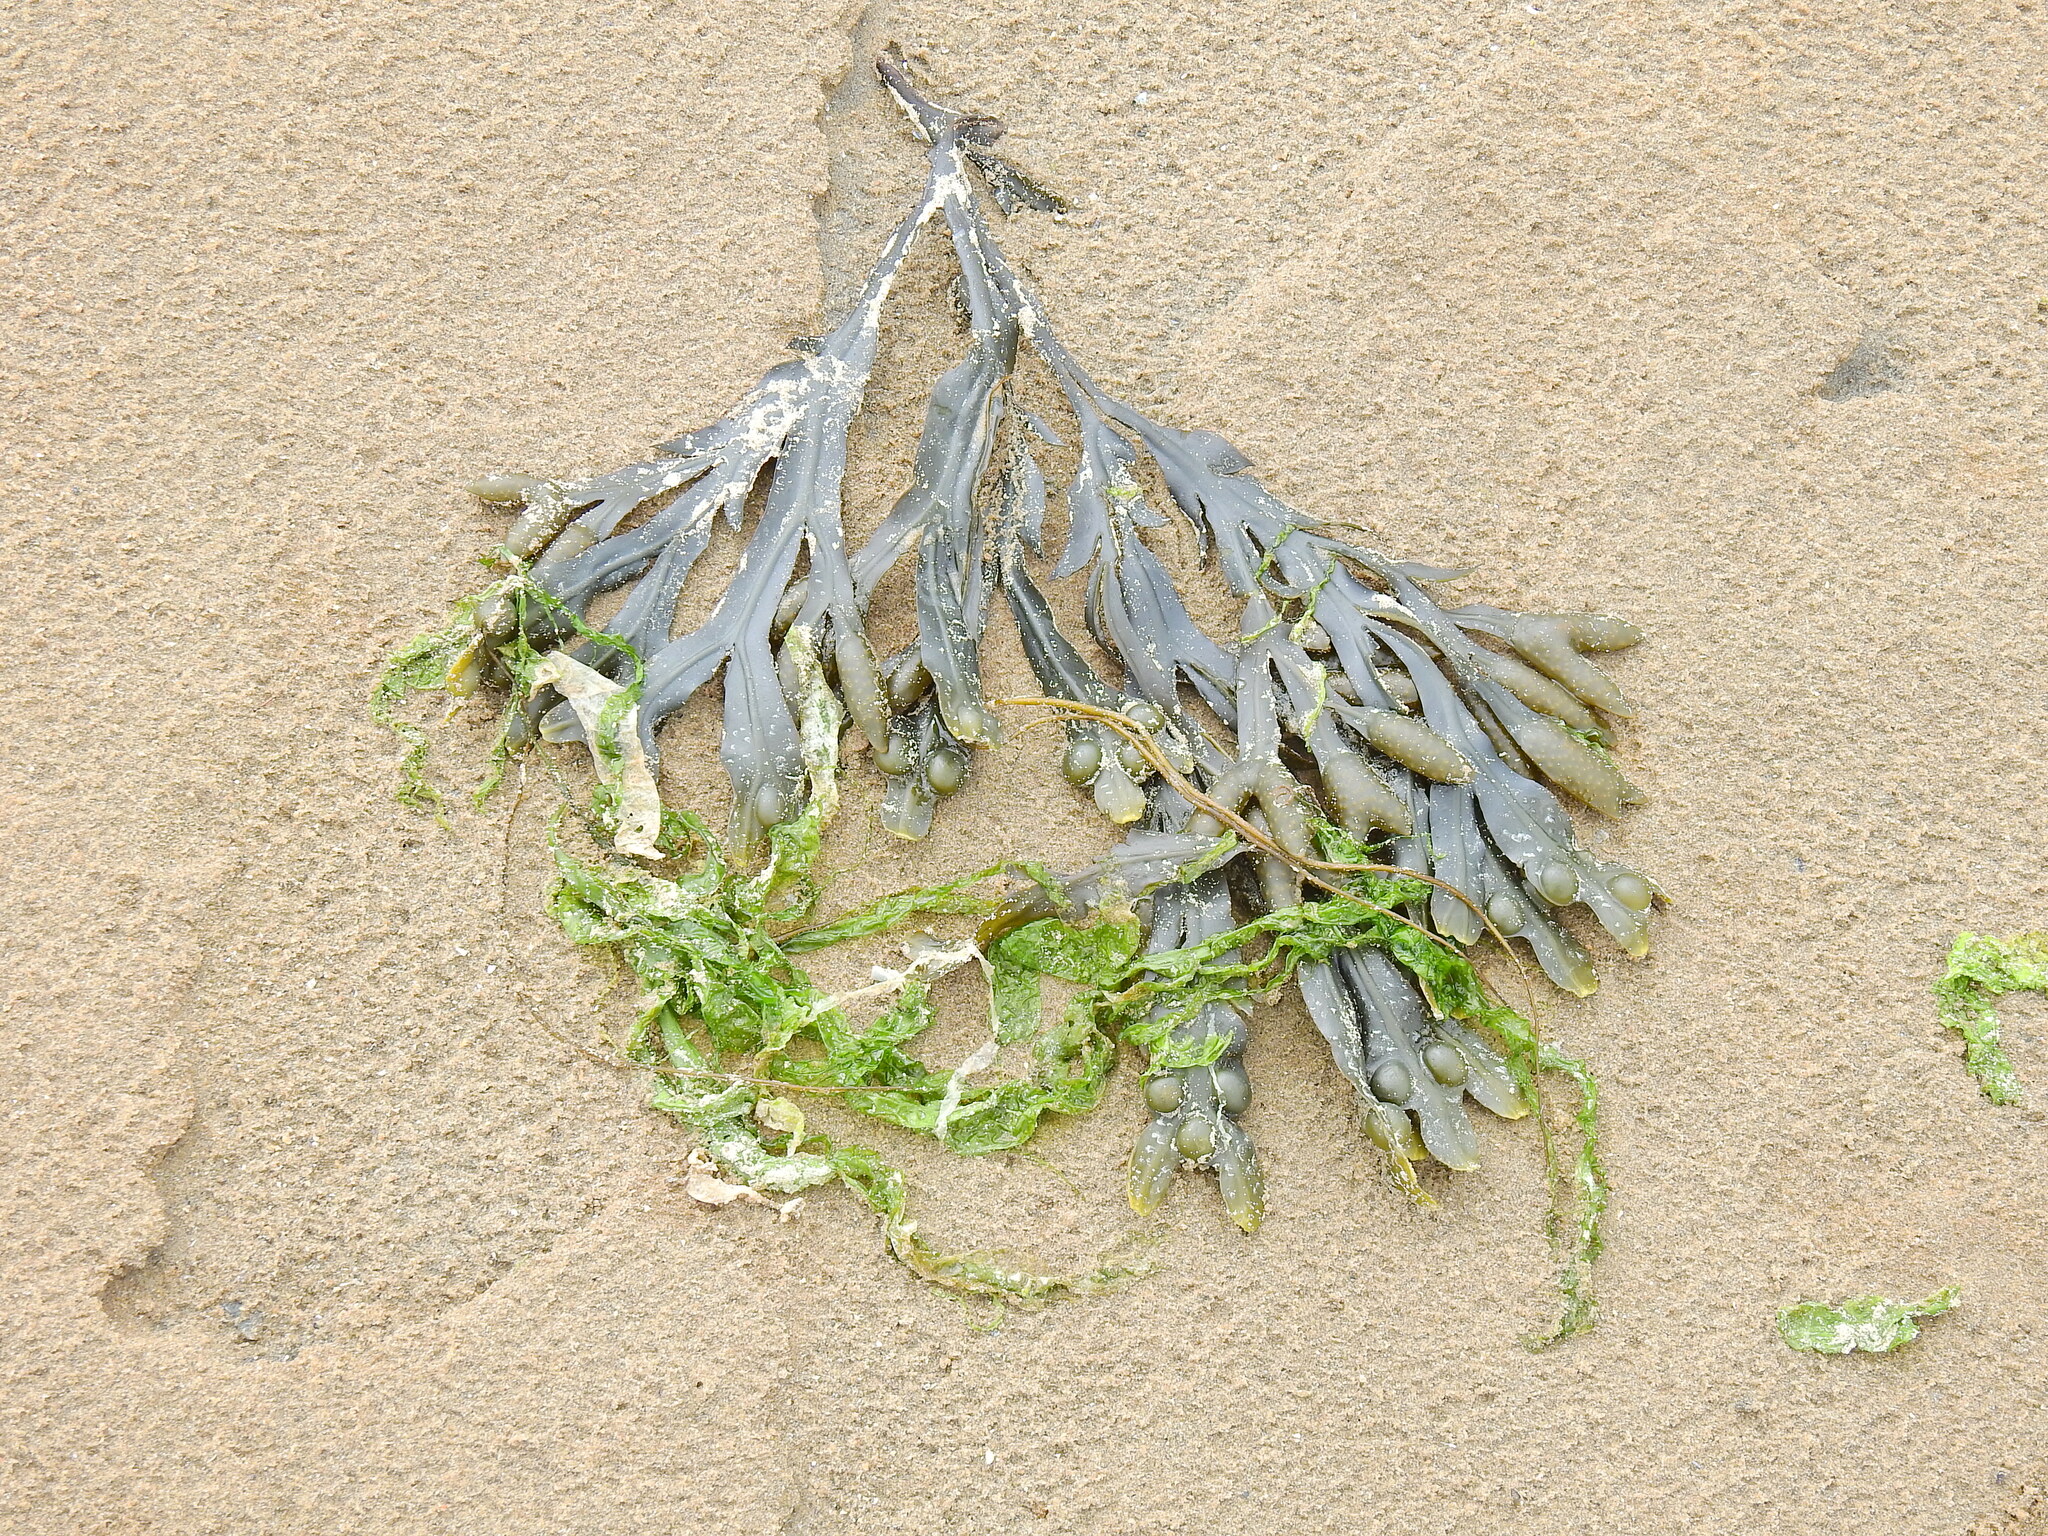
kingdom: Chromista
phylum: Ochrophyta
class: Phaeophyceae
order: Fucales
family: Fucaceae
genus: Fucus
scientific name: Fucus vesiculosus
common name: Bladder wrack
